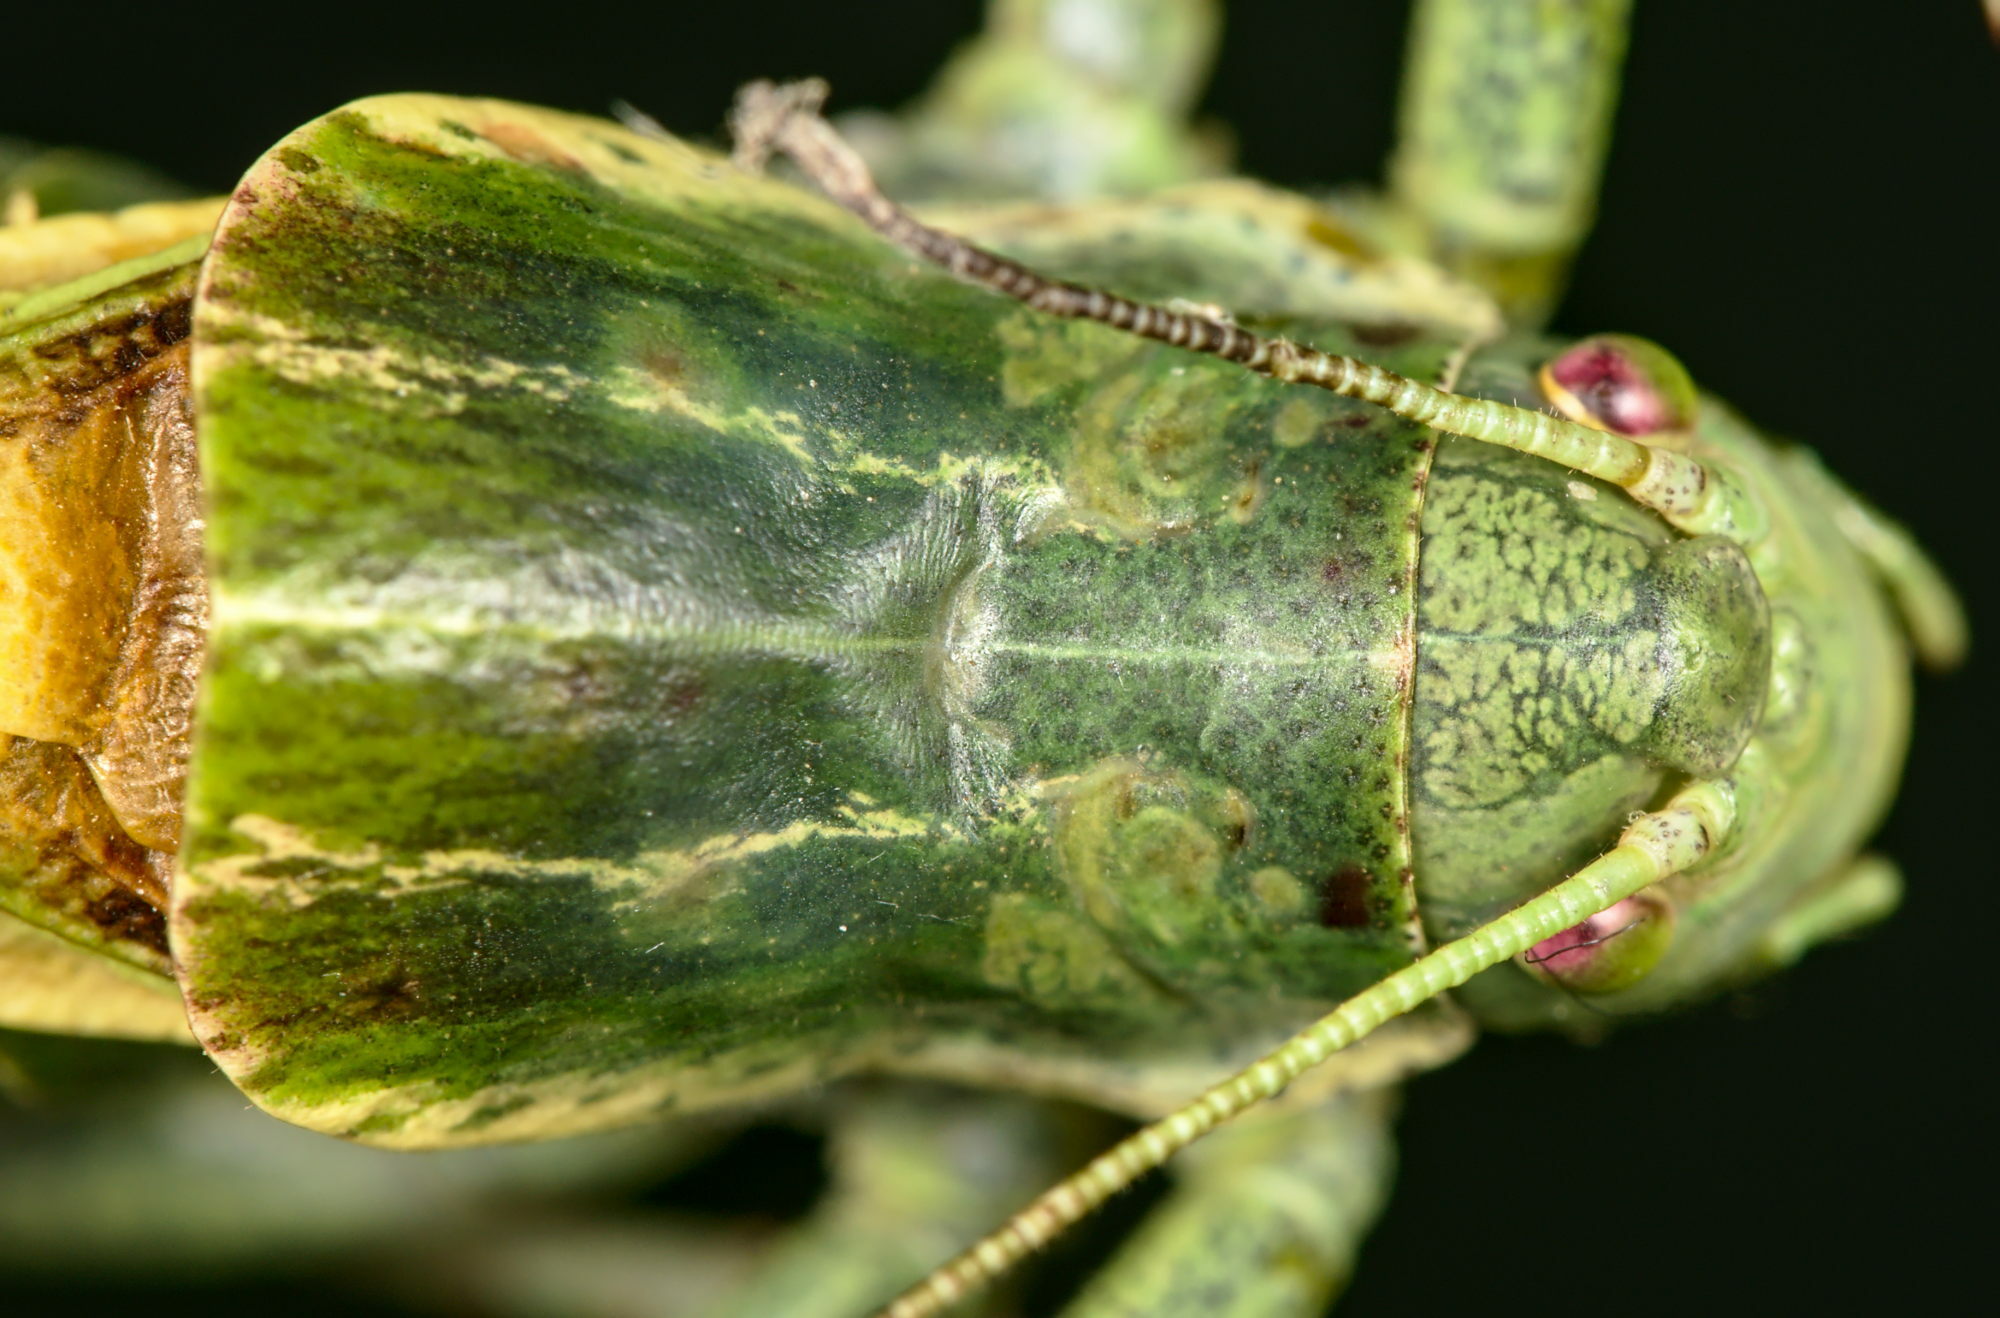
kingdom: Animalia
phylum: Arthropoda
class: Insecta
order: Orthoptera
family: Tettigoniidae
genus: Polysarcus
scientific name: Polysarcus denticauda
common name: Large saw-tailed bush-cricket
